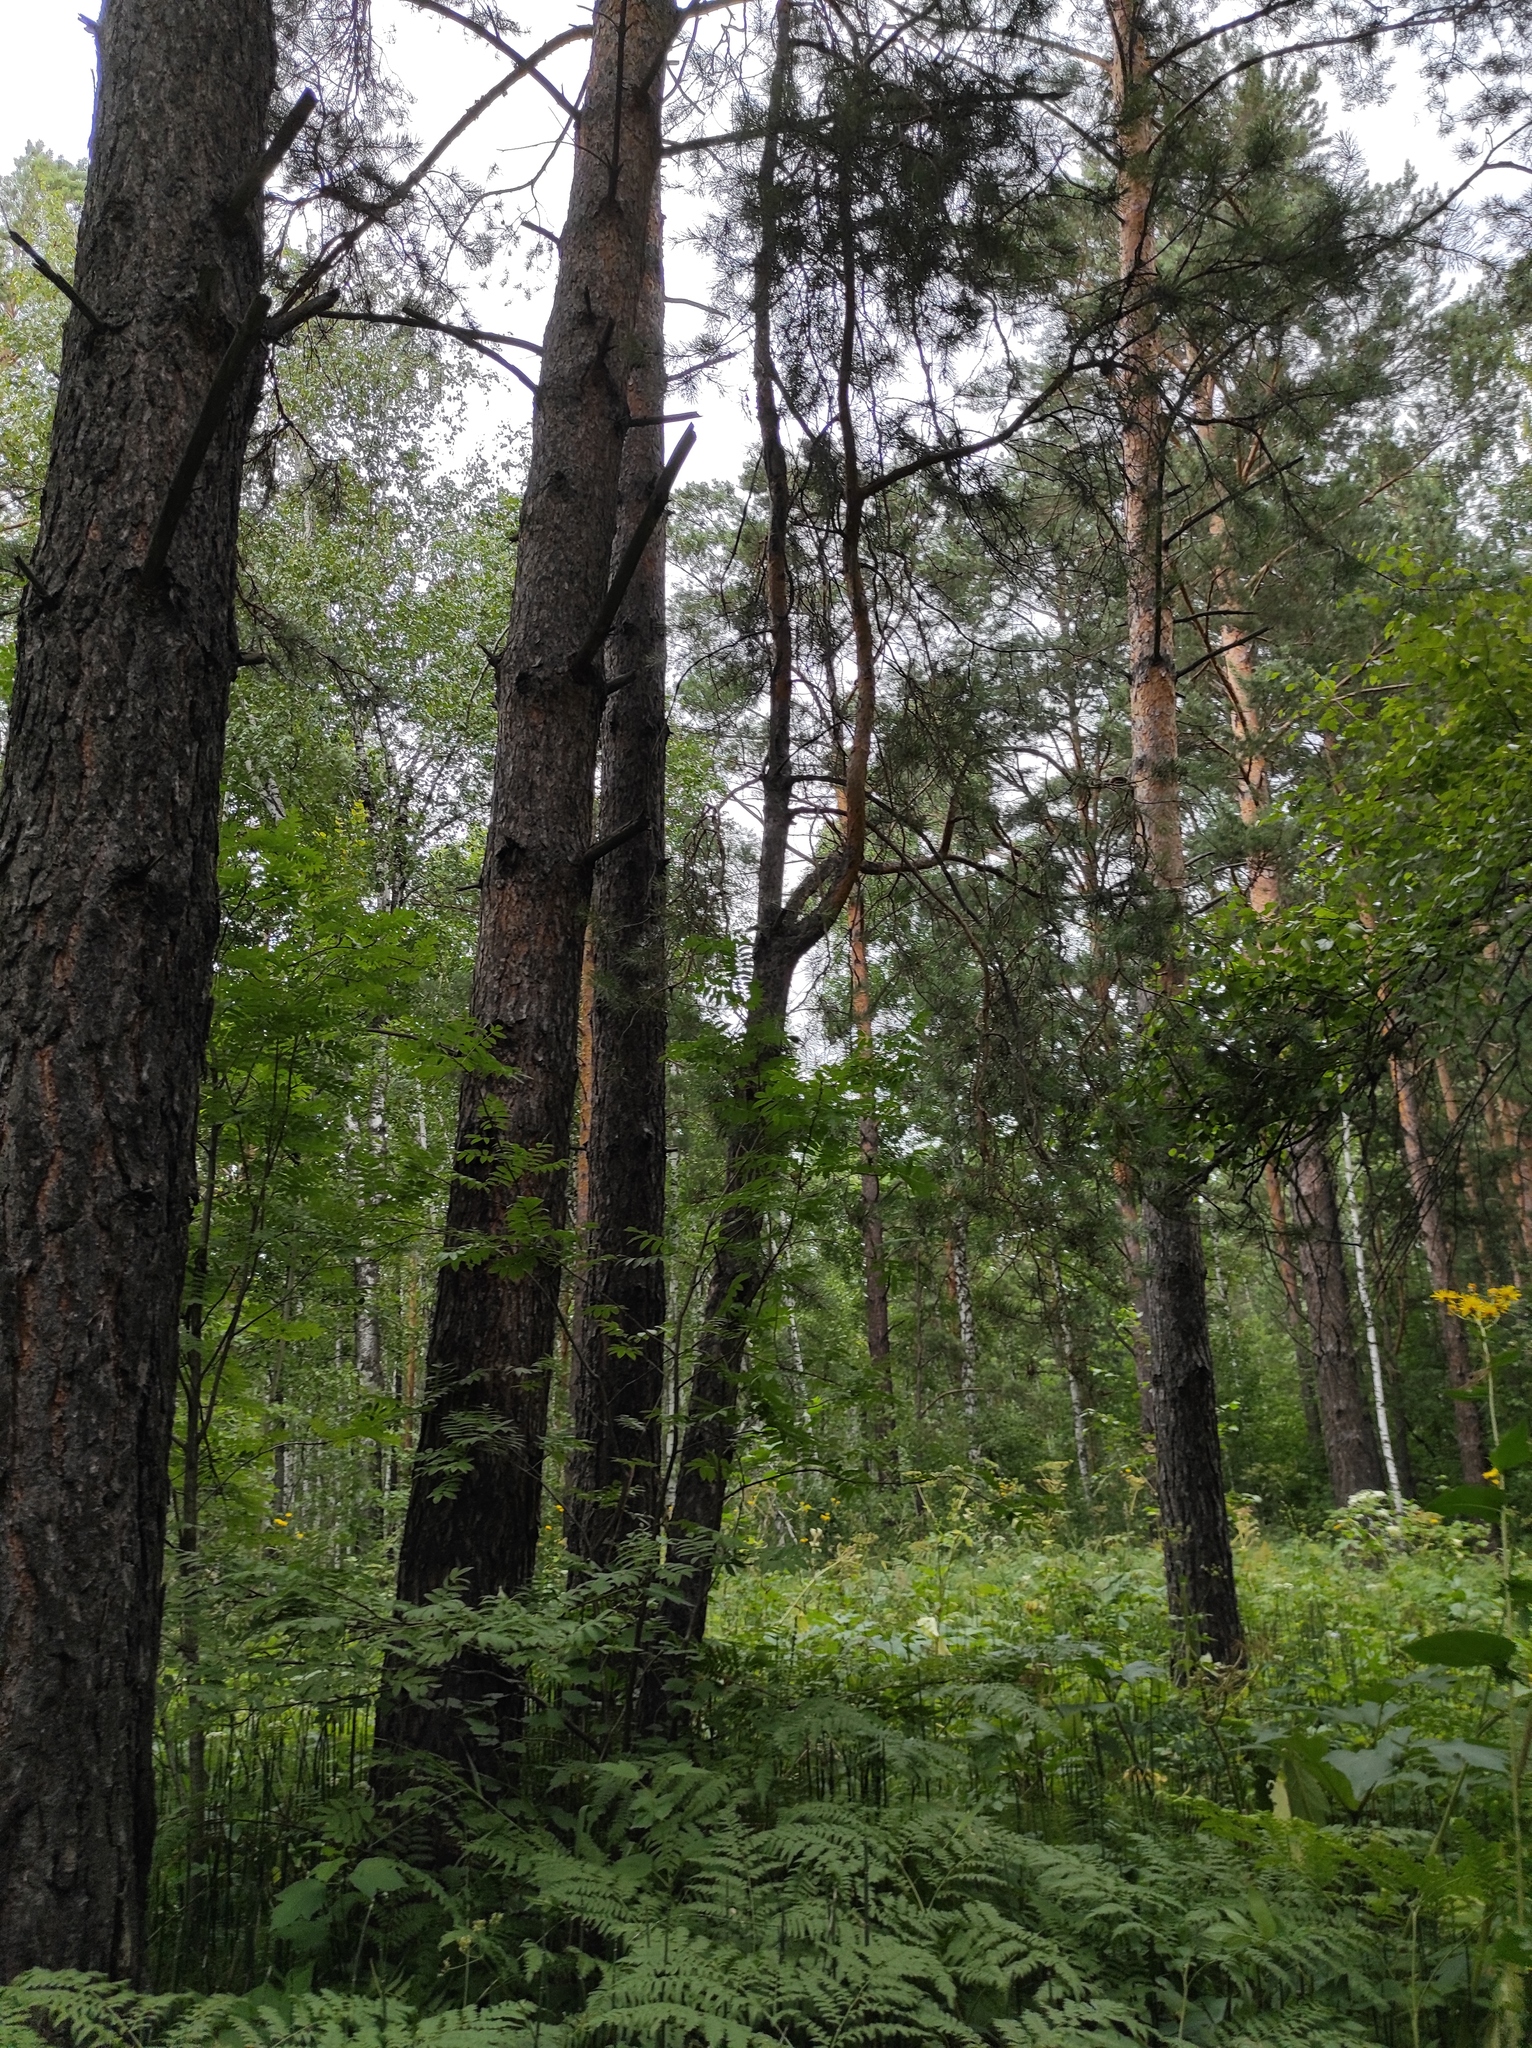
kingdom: Plantae
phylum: Tracheophyta
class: Pinopsida
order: Pinales
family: Pinaceae
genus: Pinus
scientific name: Pinus sylvestris
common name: Scots pine
